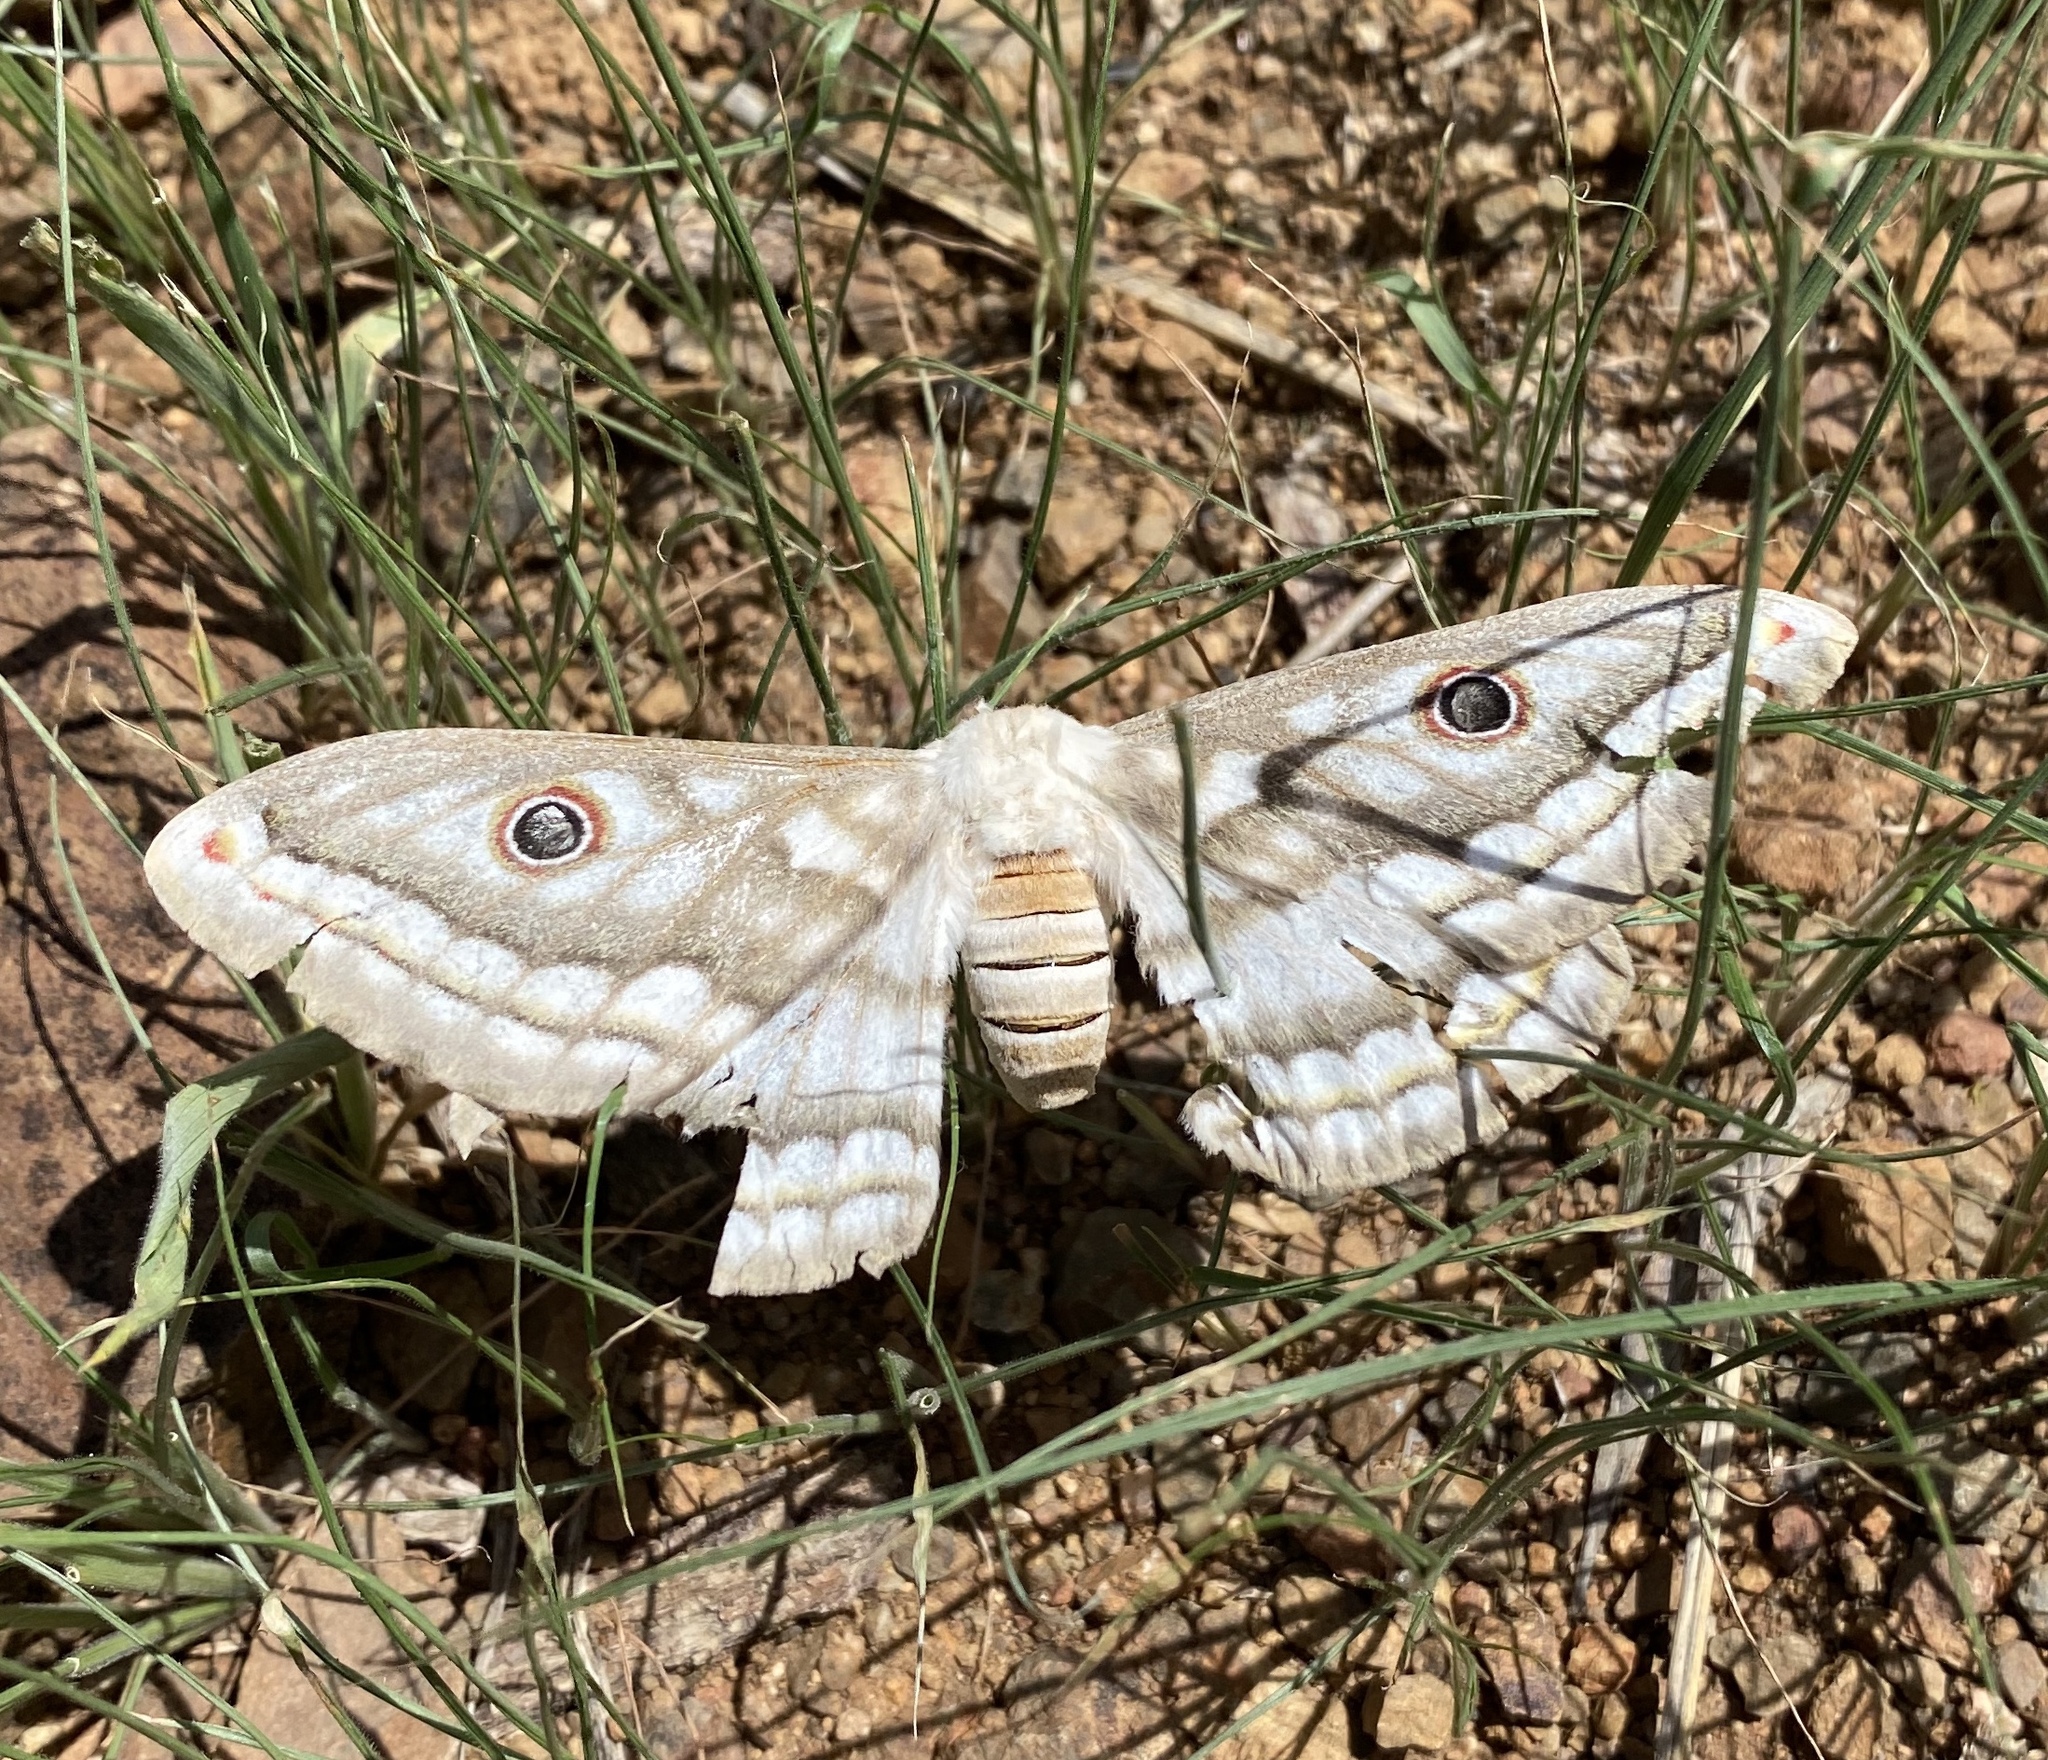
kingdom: Animalia
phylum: Arthropoda
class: Insecta
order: Lepidoptera
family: Saturniidae
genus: Heniocha
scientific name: Heniocha bioculata
